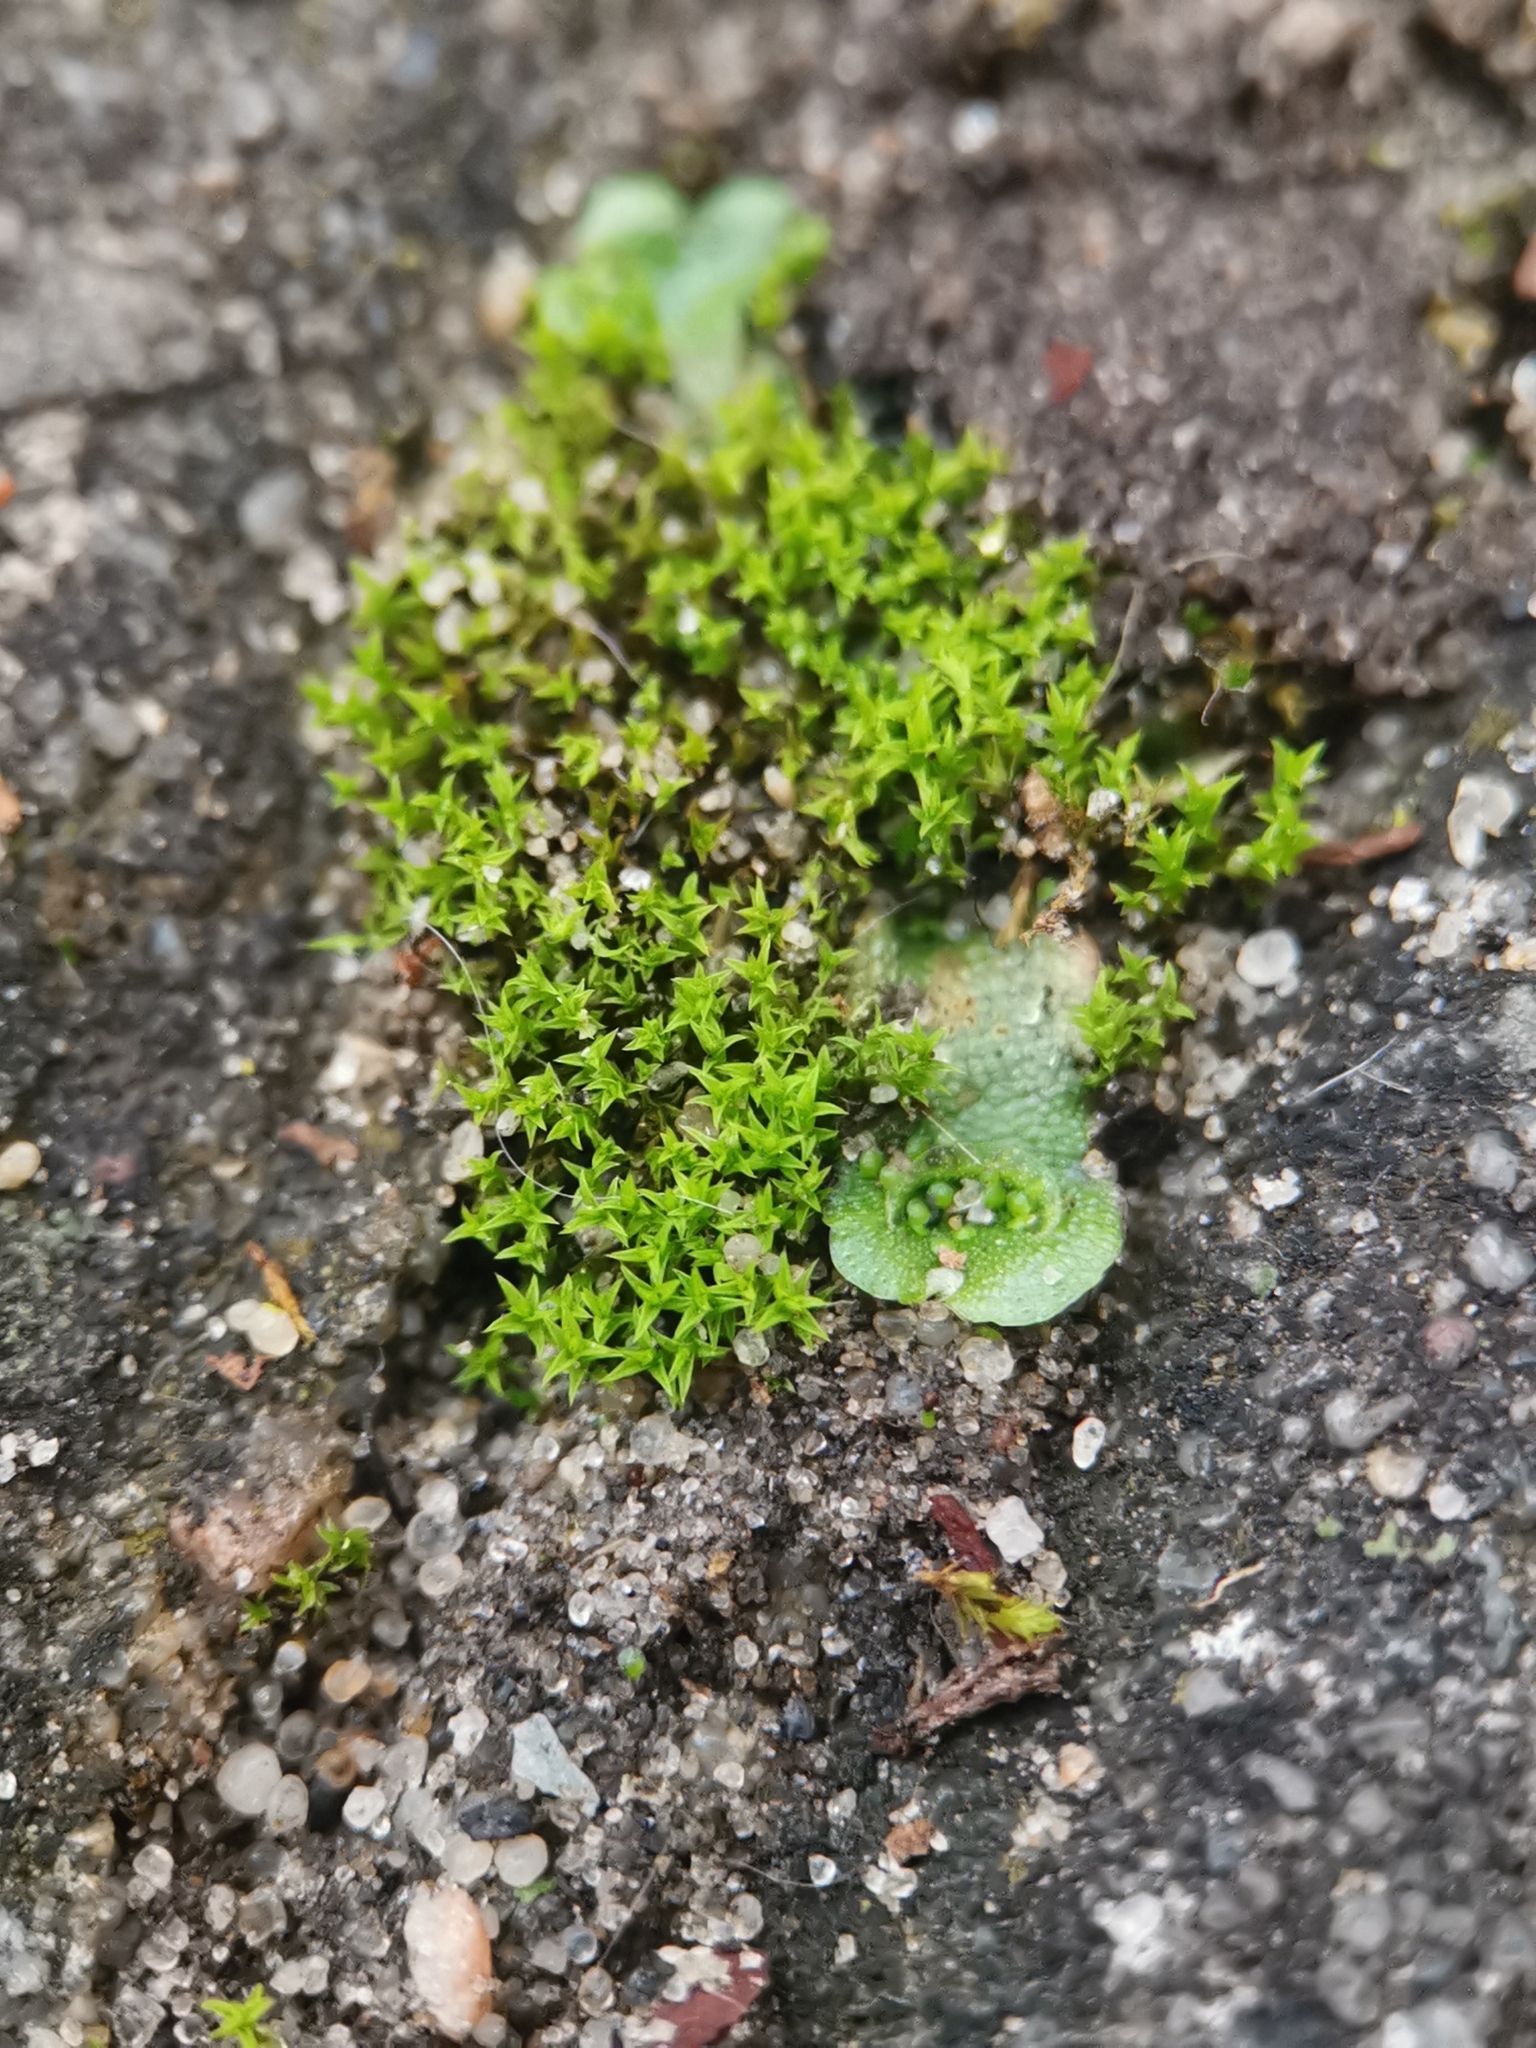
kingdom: Plantae
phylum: Bryophyta
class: Bryopsida
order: Pottiales
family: Pottiaceae
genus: Pseudocrossidium
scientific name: Pseudocrossidium hornschuchianum
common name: Hornschuch's beard-moss
